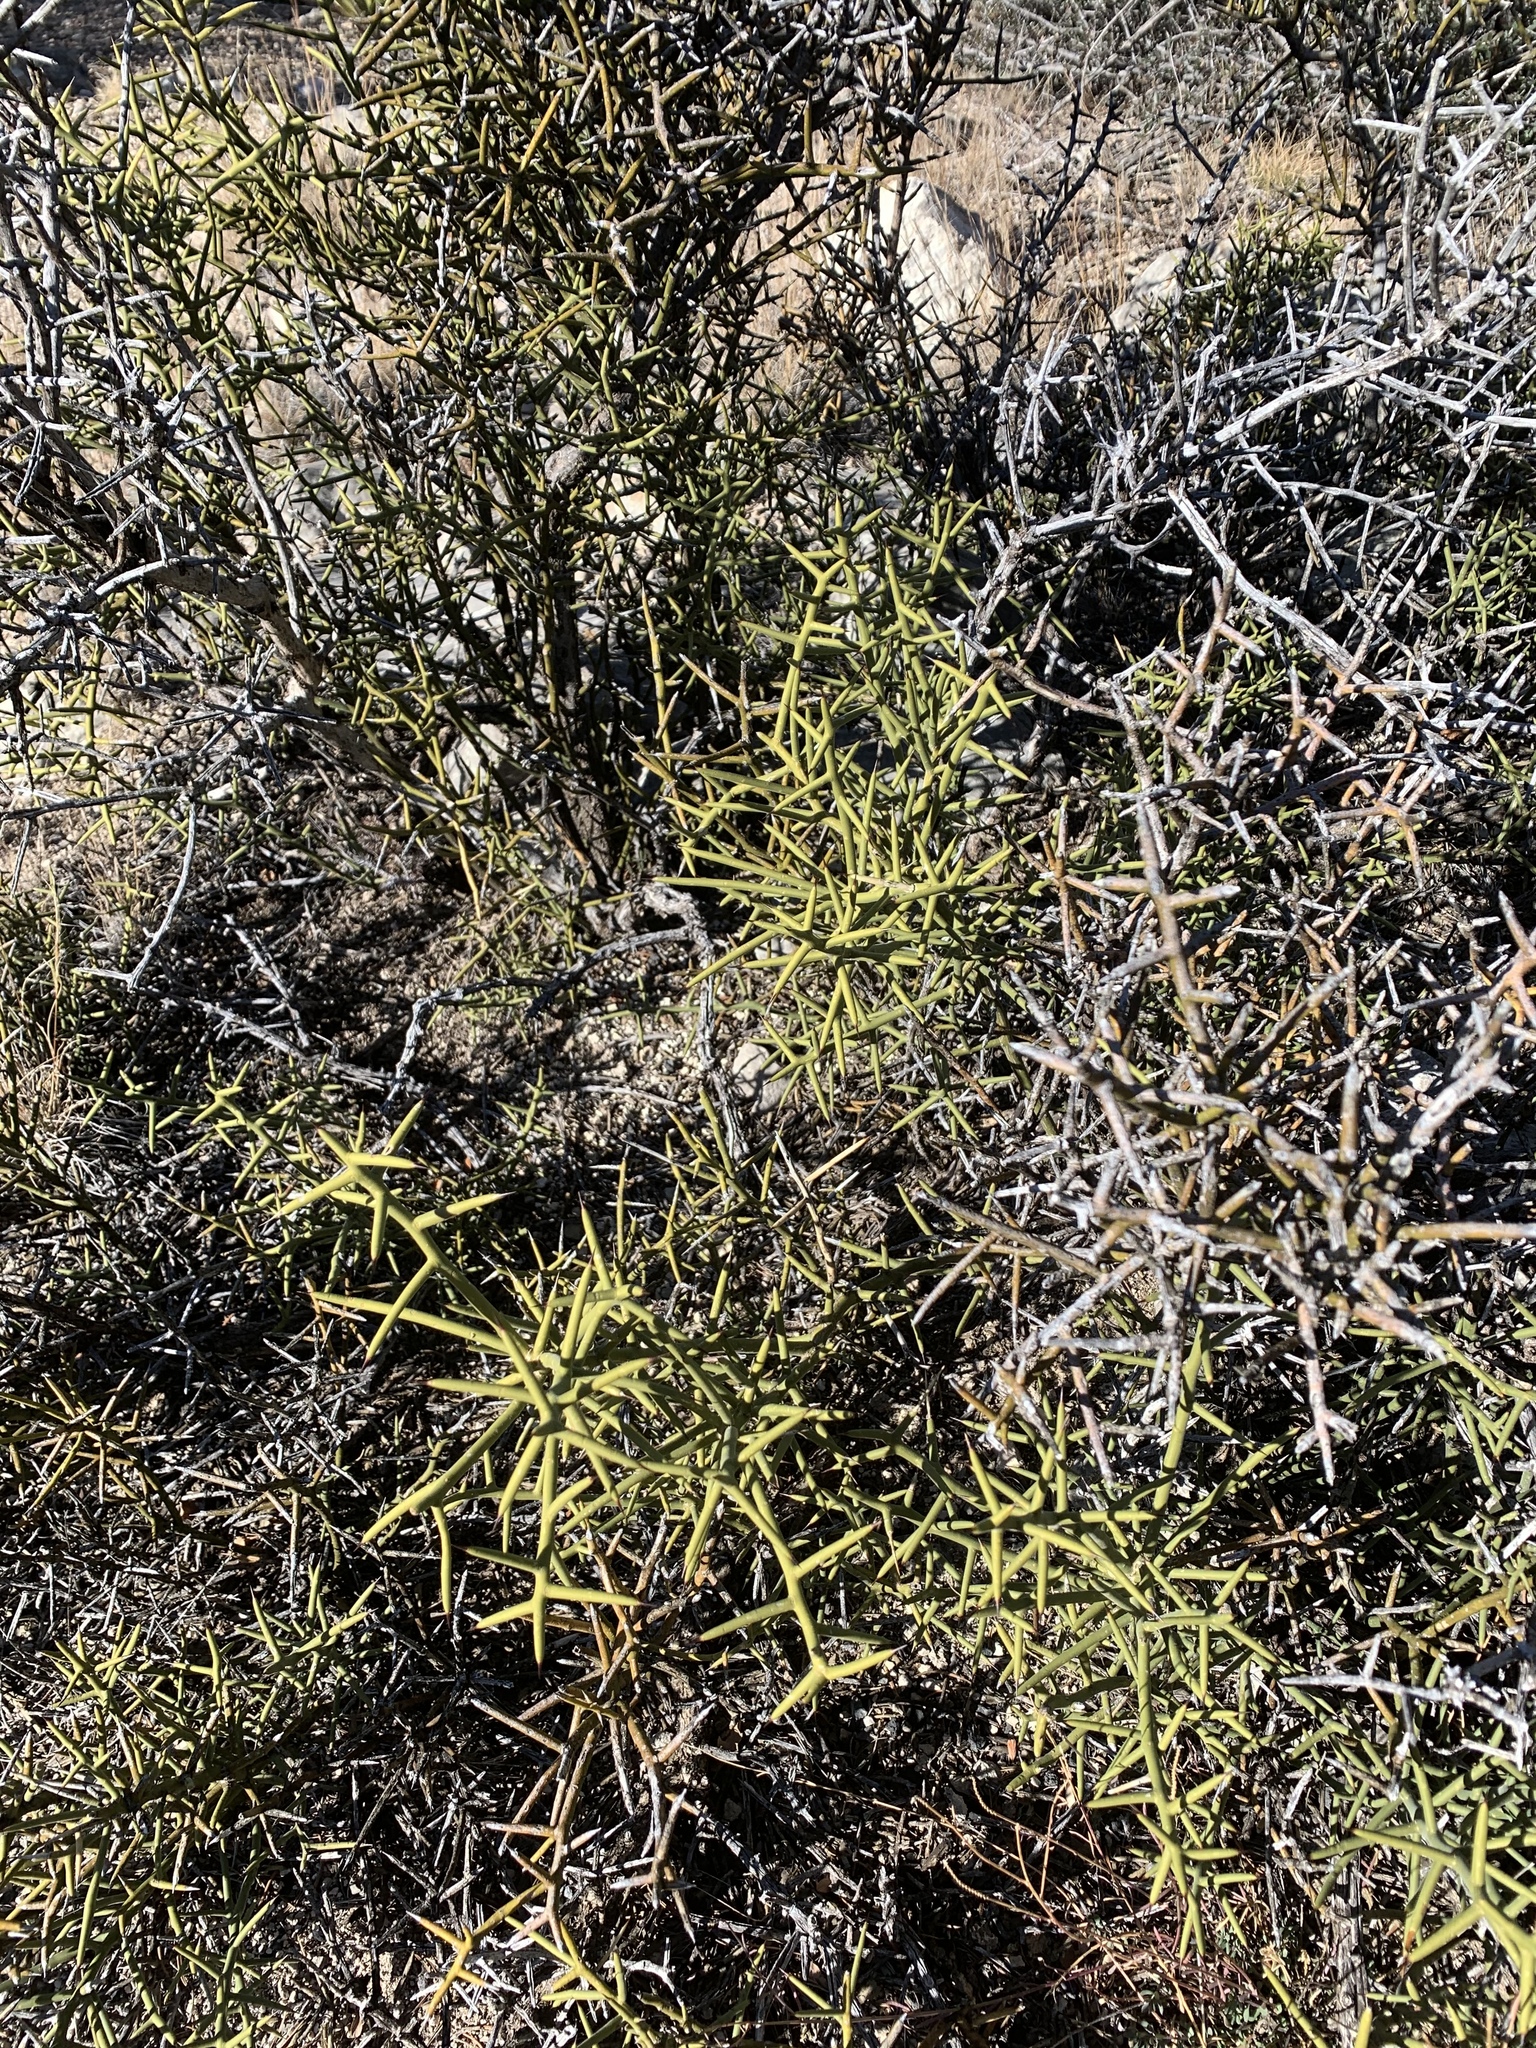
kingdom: Plantae
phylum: Tracheophyta
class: Magnoliopsida
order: Brassicales
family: Koeberliniaceae
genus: Koeberlinia
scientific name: Koeberlinia spinosa
